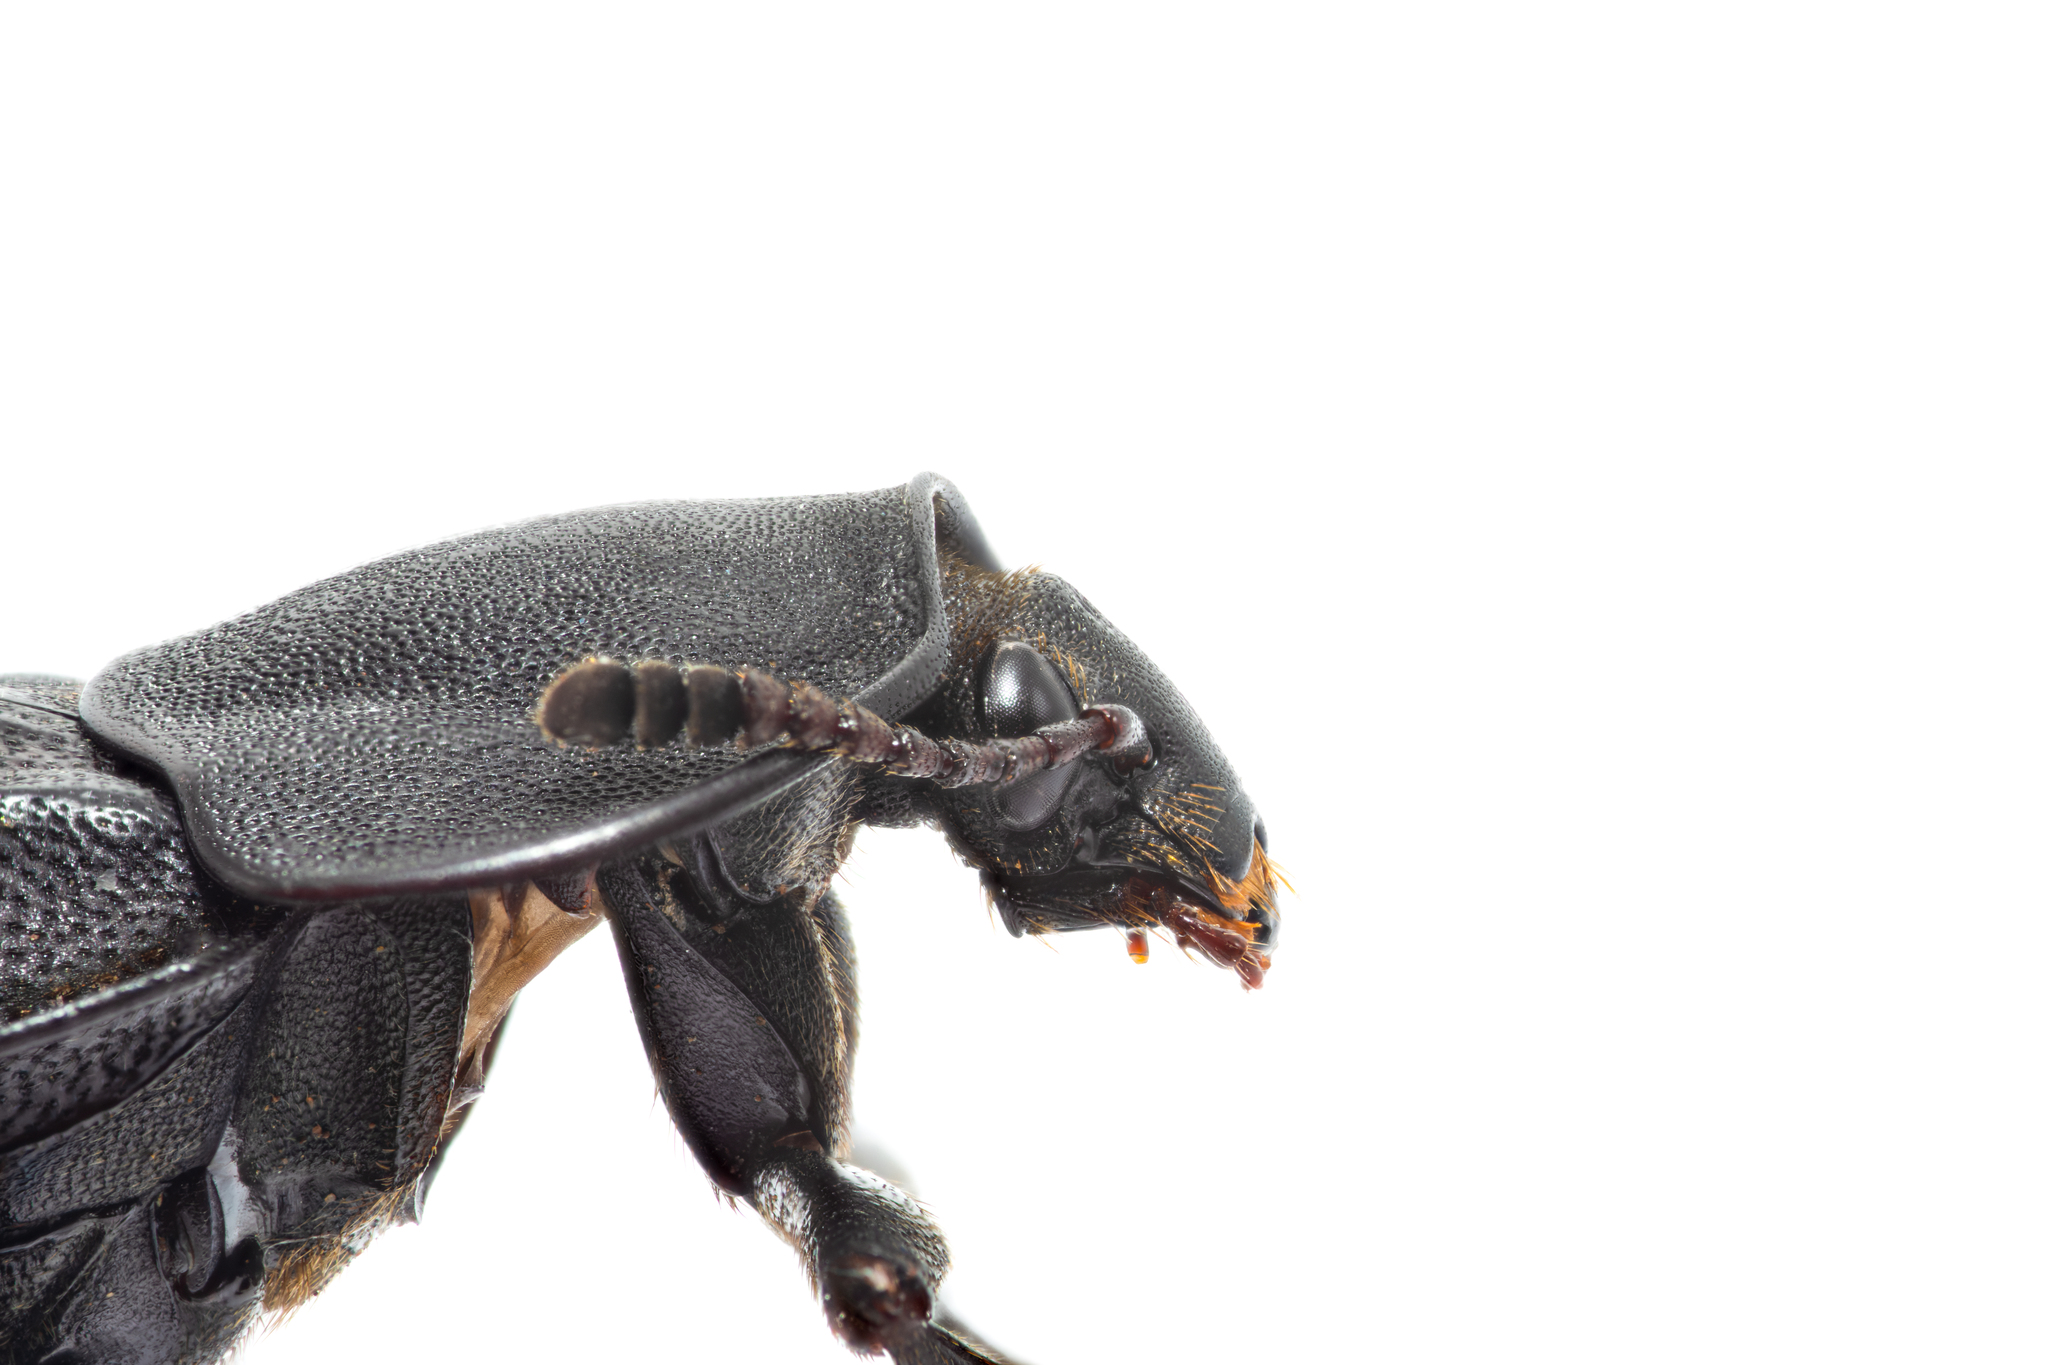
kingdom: Animalia
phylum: Arthropoda
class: Insecta
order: Coleoptera
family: Staphylinidae
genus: Silpha
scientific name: Silpha puncticollis
